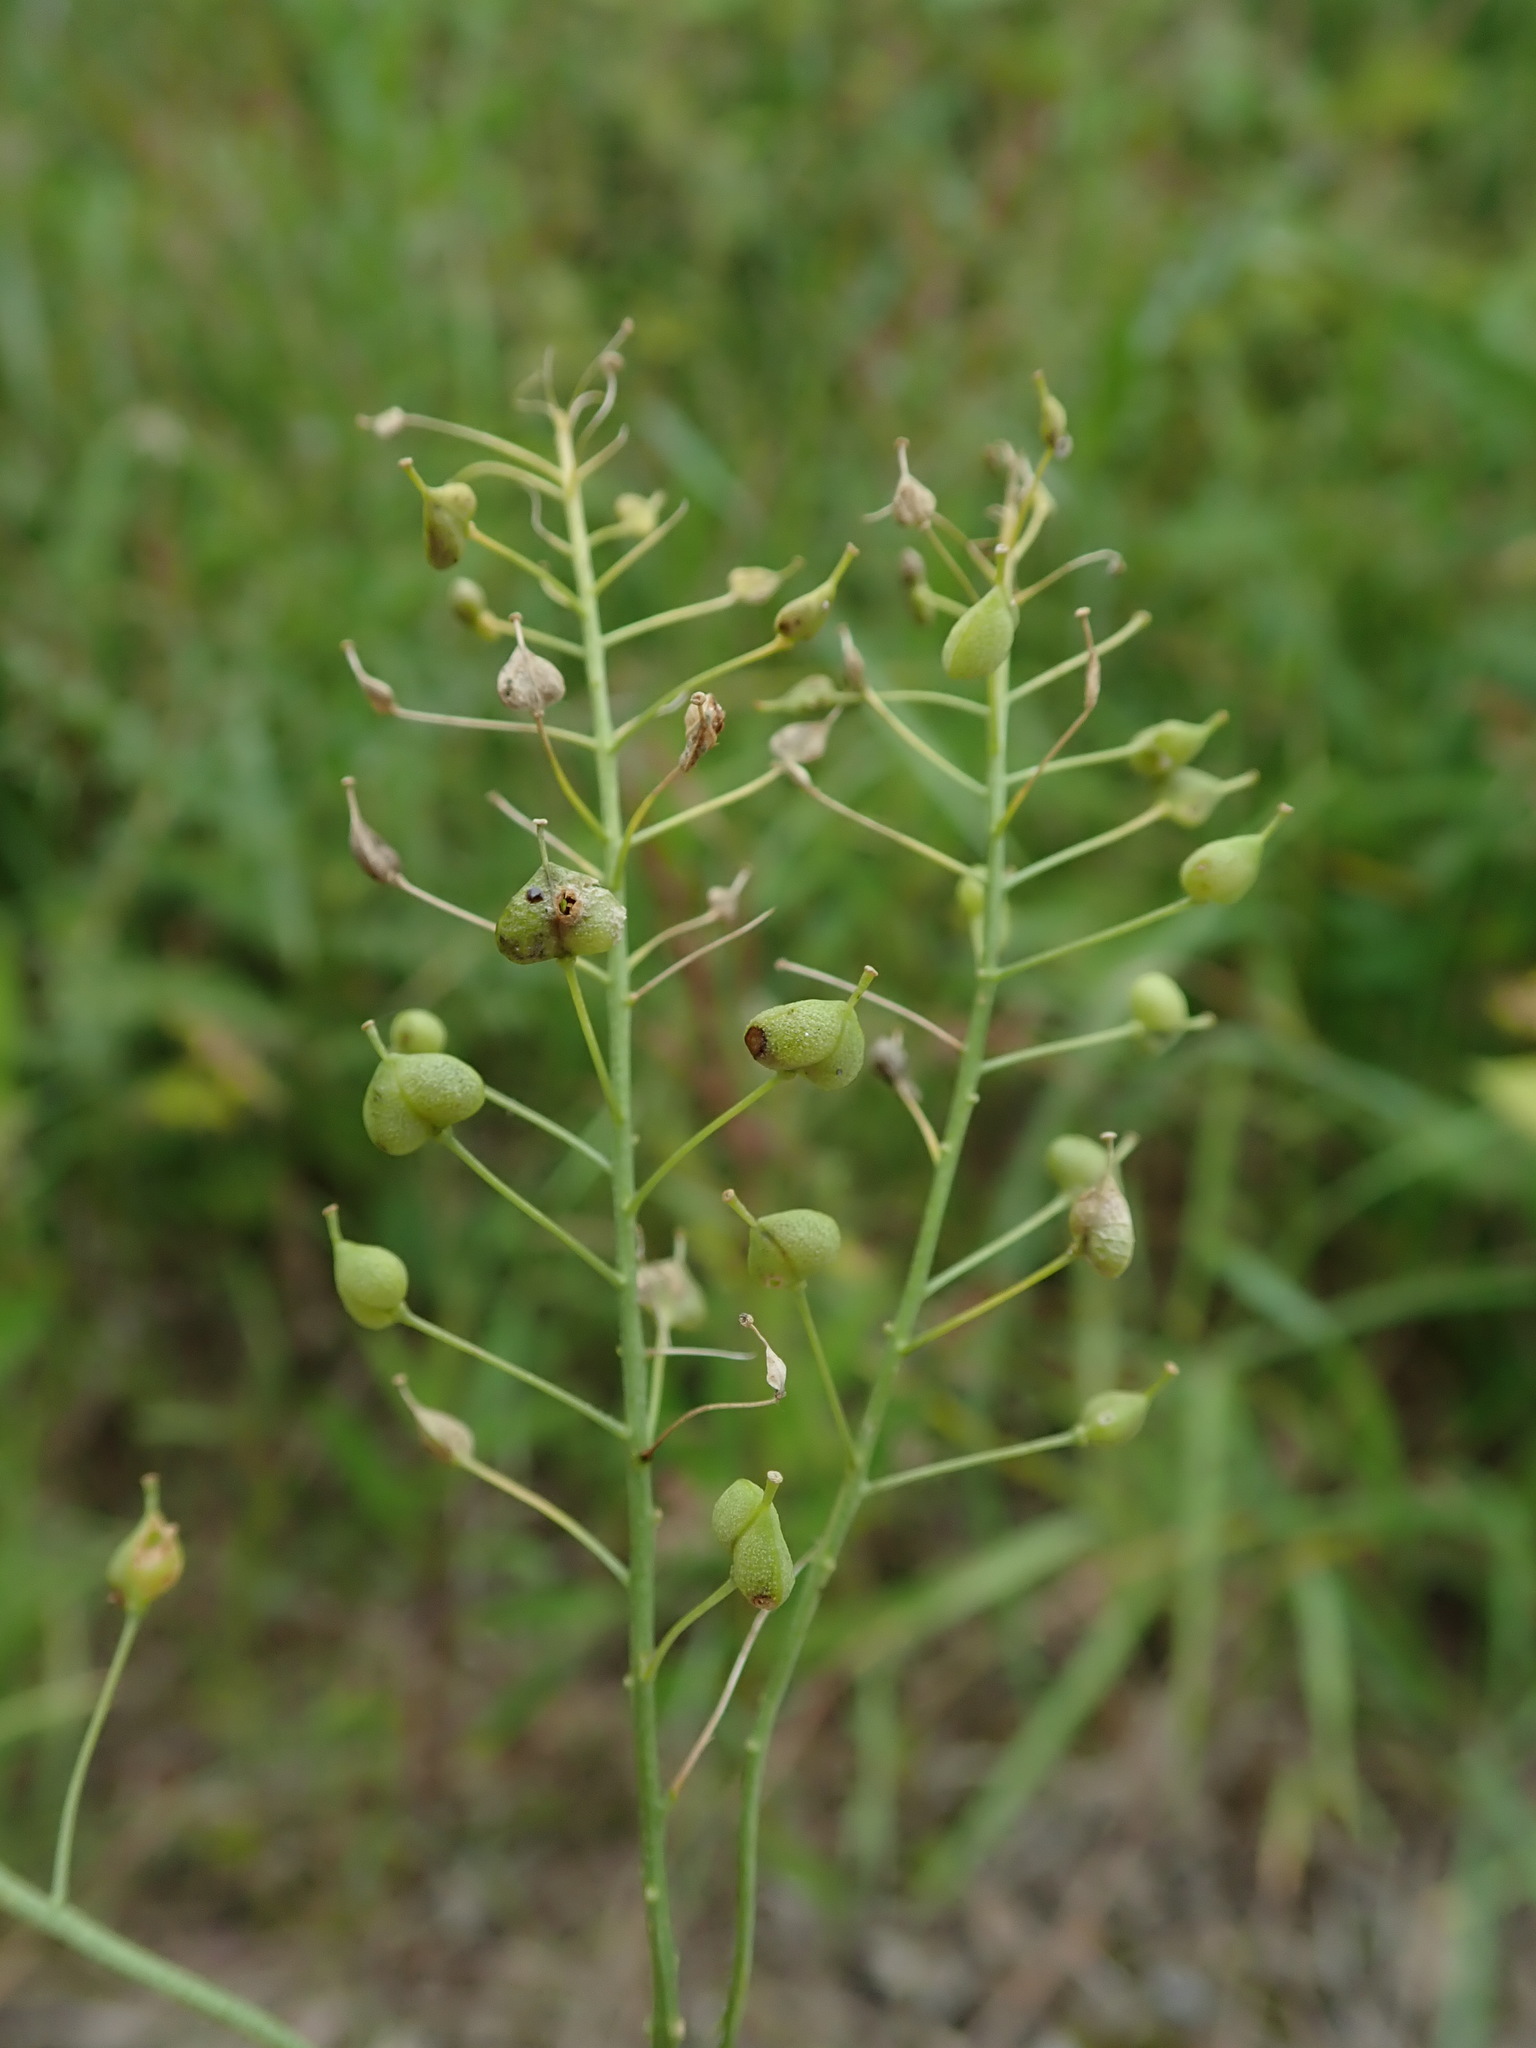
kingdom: Plantae
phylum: Tracheophyta
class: Magnoliopsida
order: Brassicales
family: Brassicaceae
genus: Lepidium
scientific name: Lepidium draba
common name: Hoary cress
